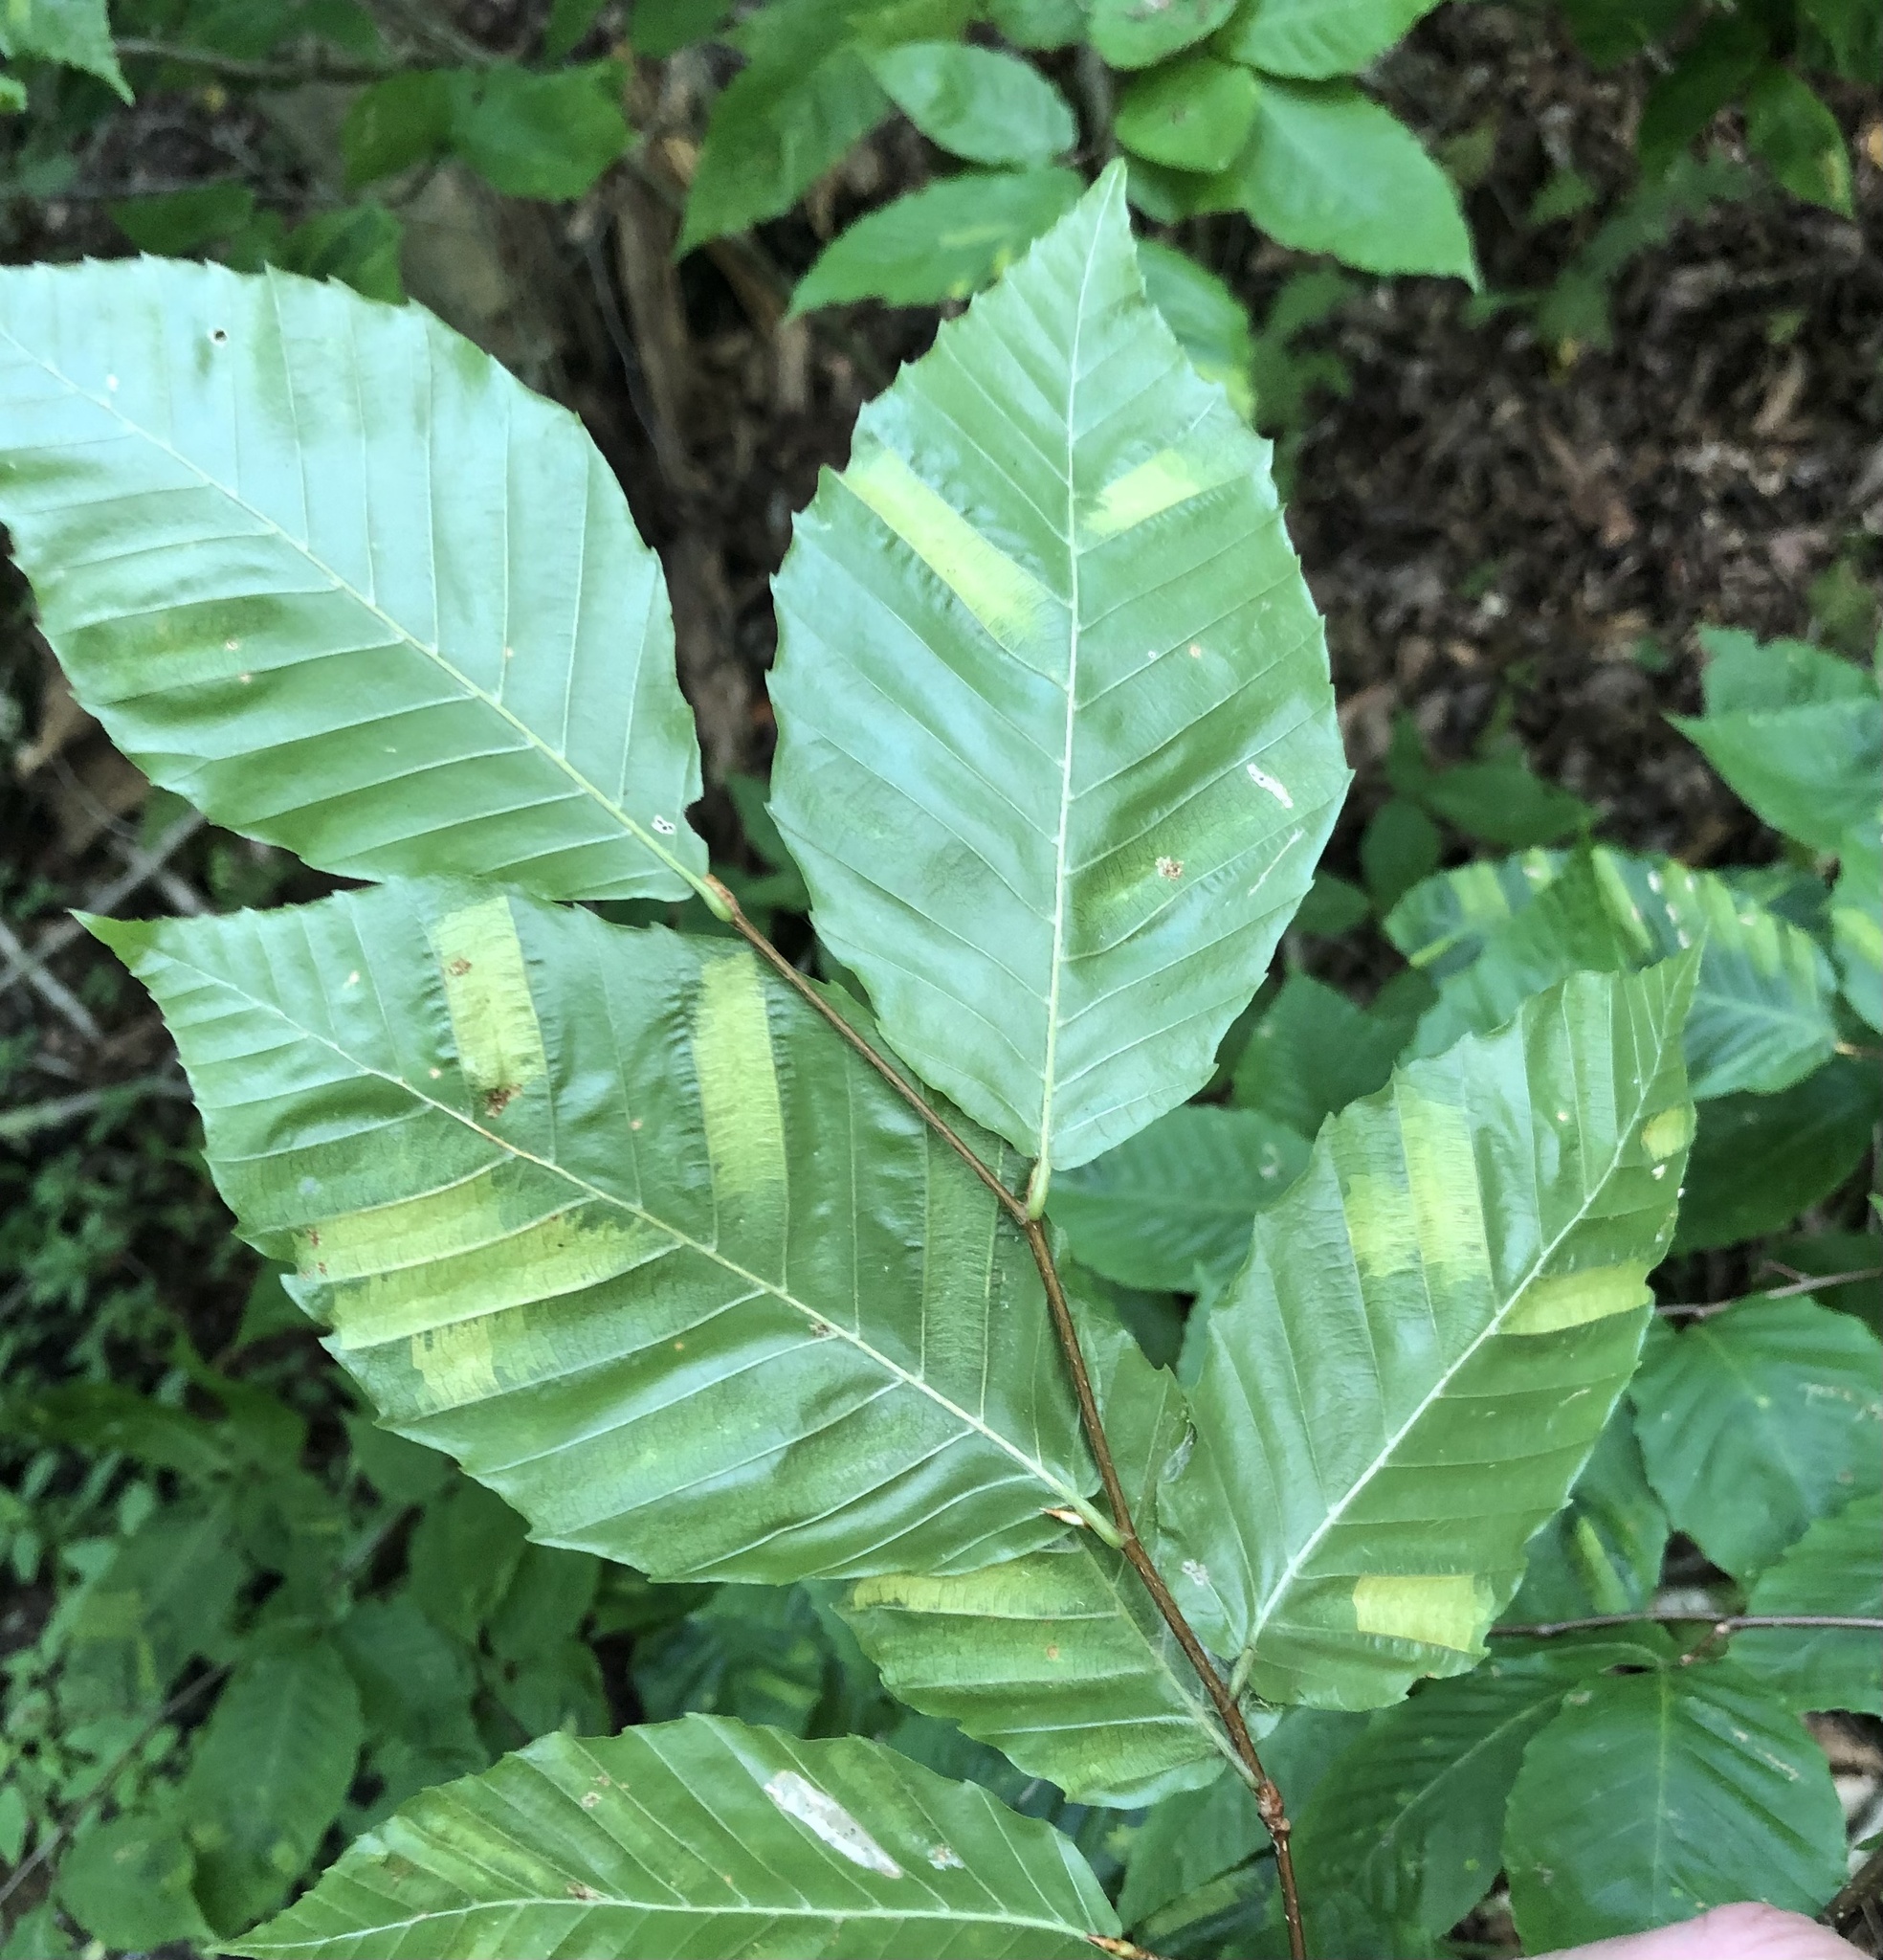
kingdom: Animalia
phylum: Nematoda
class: Chromadorea
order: Rhabditida
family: Anguinidae
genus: Litylenchus
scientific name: Litylenchus crenatae
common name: Beech leaf disease
